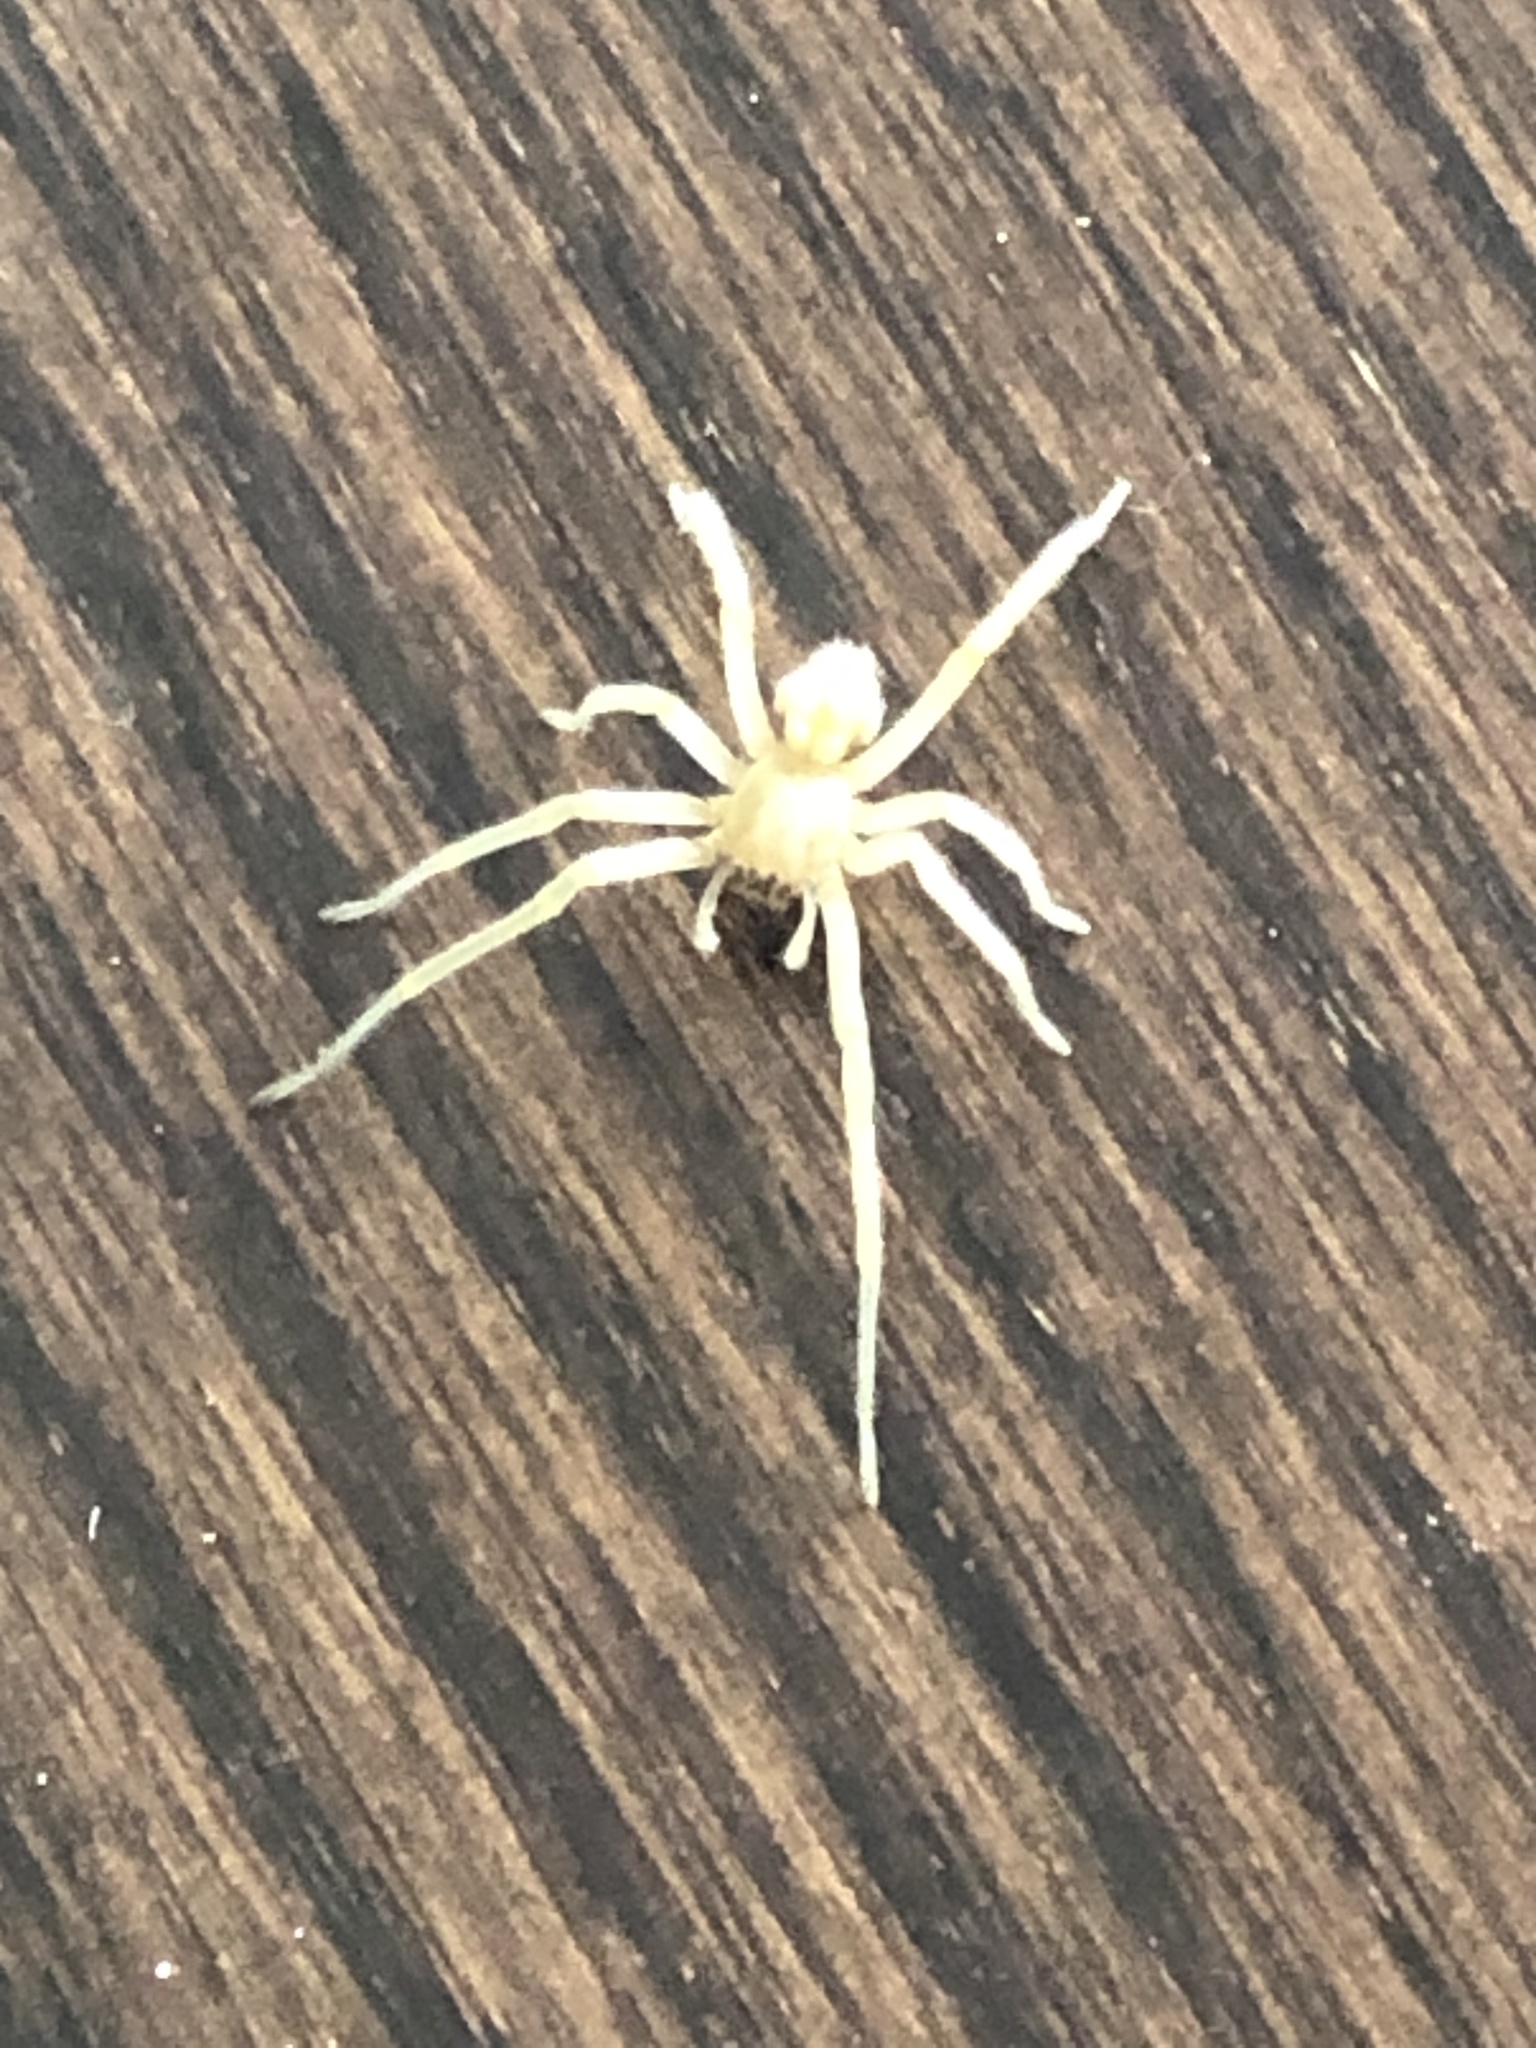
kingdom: Animalia
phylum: Arthropoda
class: Arachnida
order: Araneae
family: Cheiracanthiidae
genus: Cheiracanthium
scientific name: Cheiracanthium mildei
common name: Northern yellow sac spider
